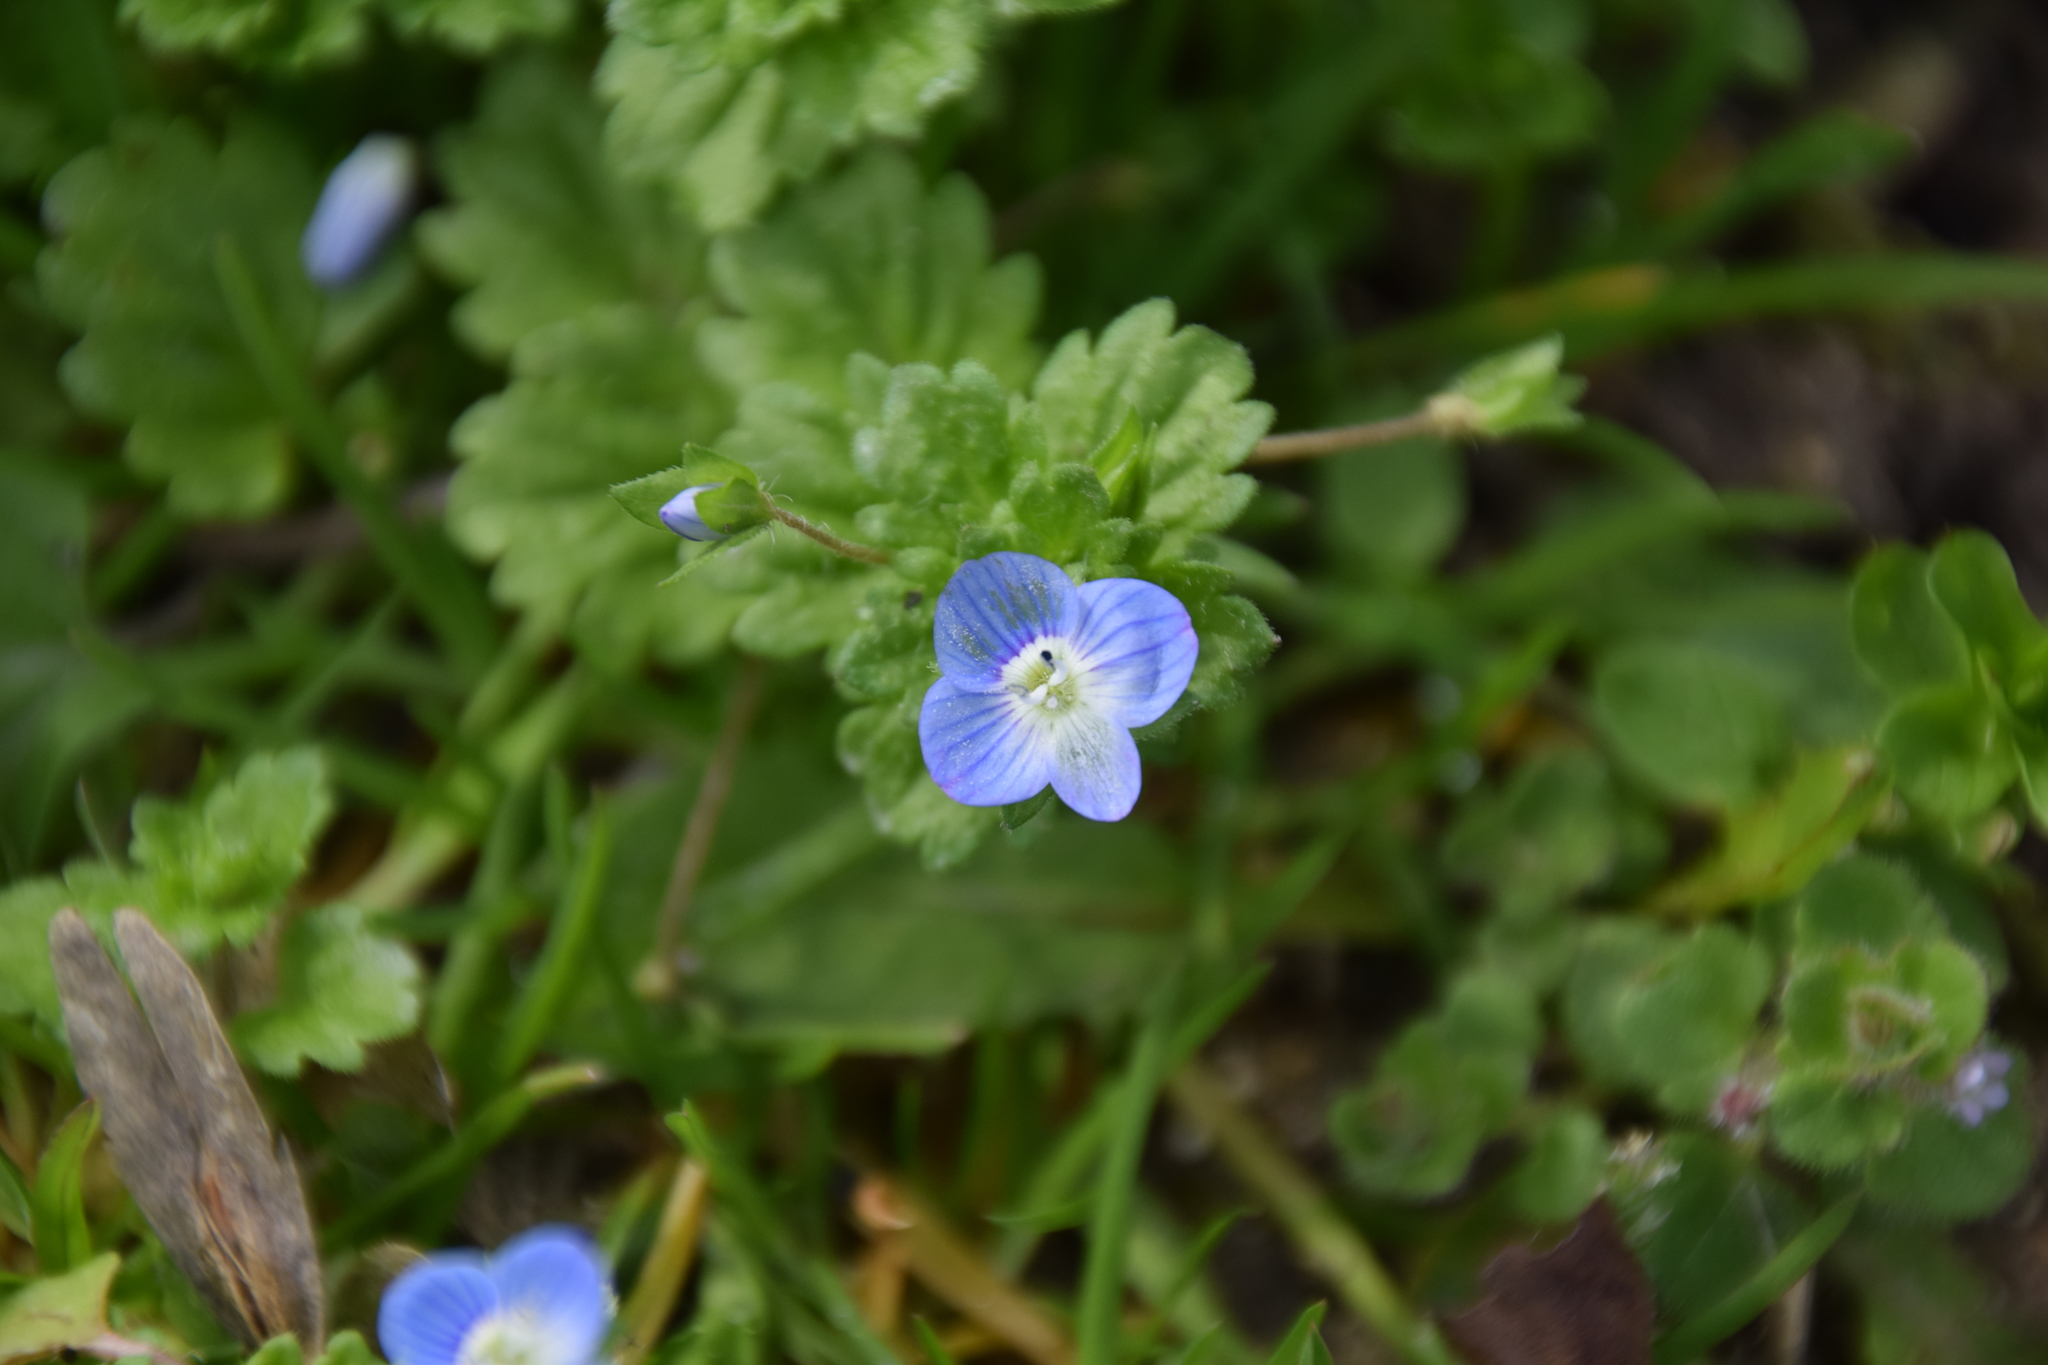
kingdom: Plantae
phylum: Tracheophyta
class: Magnoliopsida
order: Lamiales
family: Plantaginaceae
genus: Veronica
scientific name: Veronica persica
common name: Common field-speedwell
